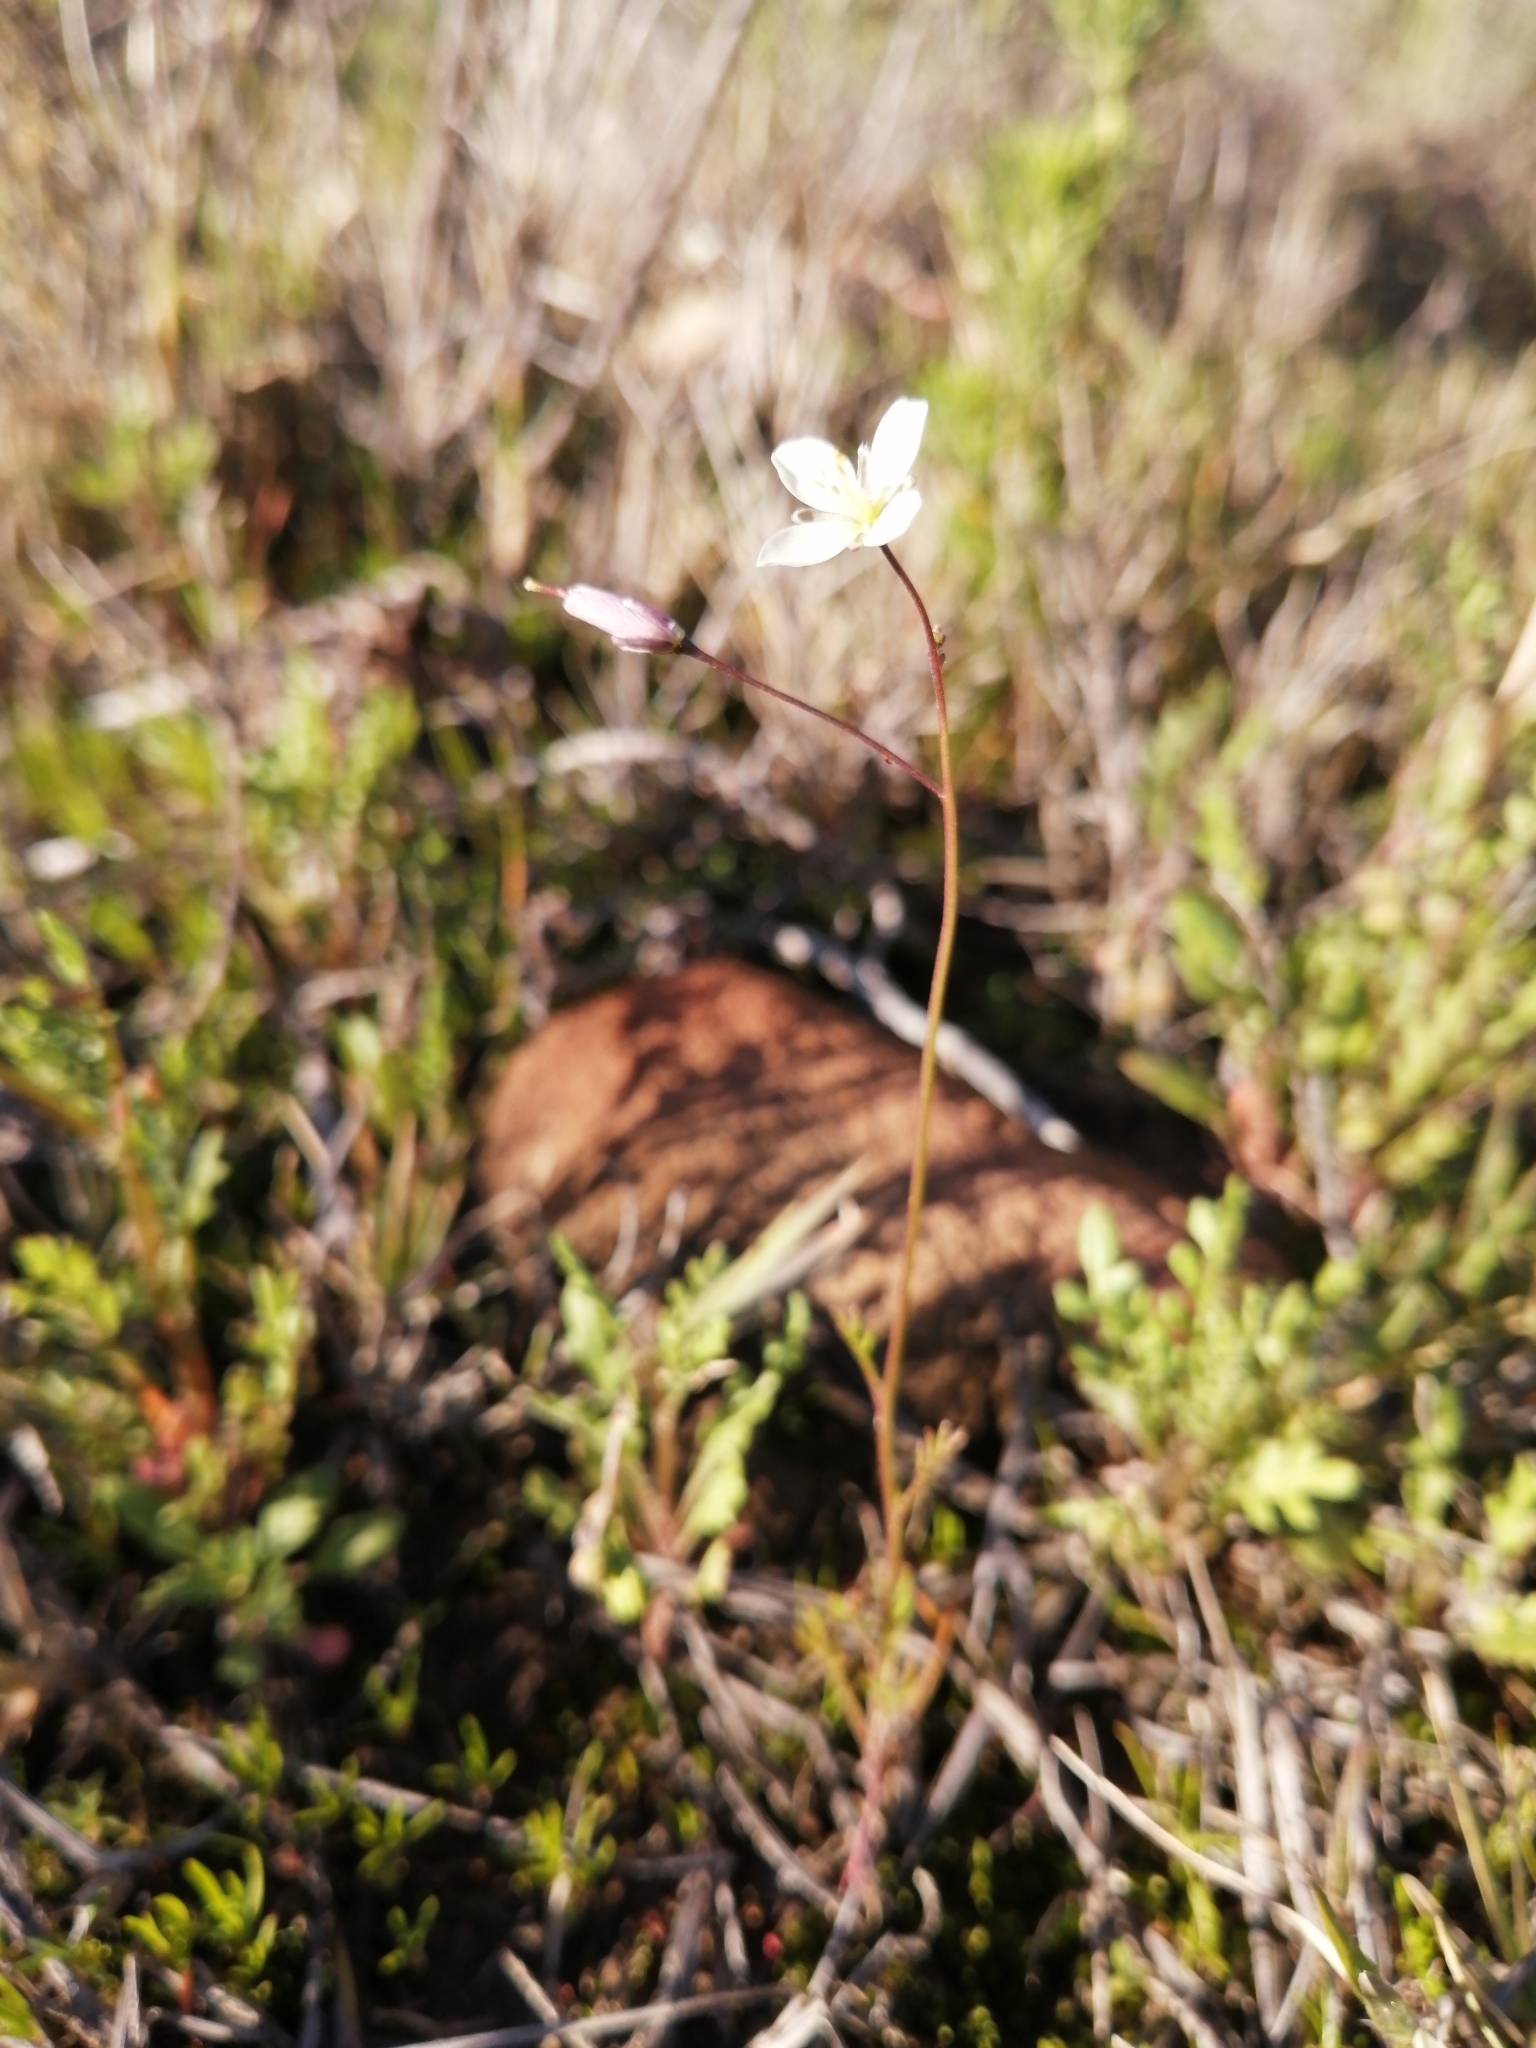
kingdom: Plantae
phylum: Tracheophyta
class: Magnoliopsida
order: Brassicales
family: Brassicaceae
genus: Heliophila
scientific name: Heliophila crithmifolia
